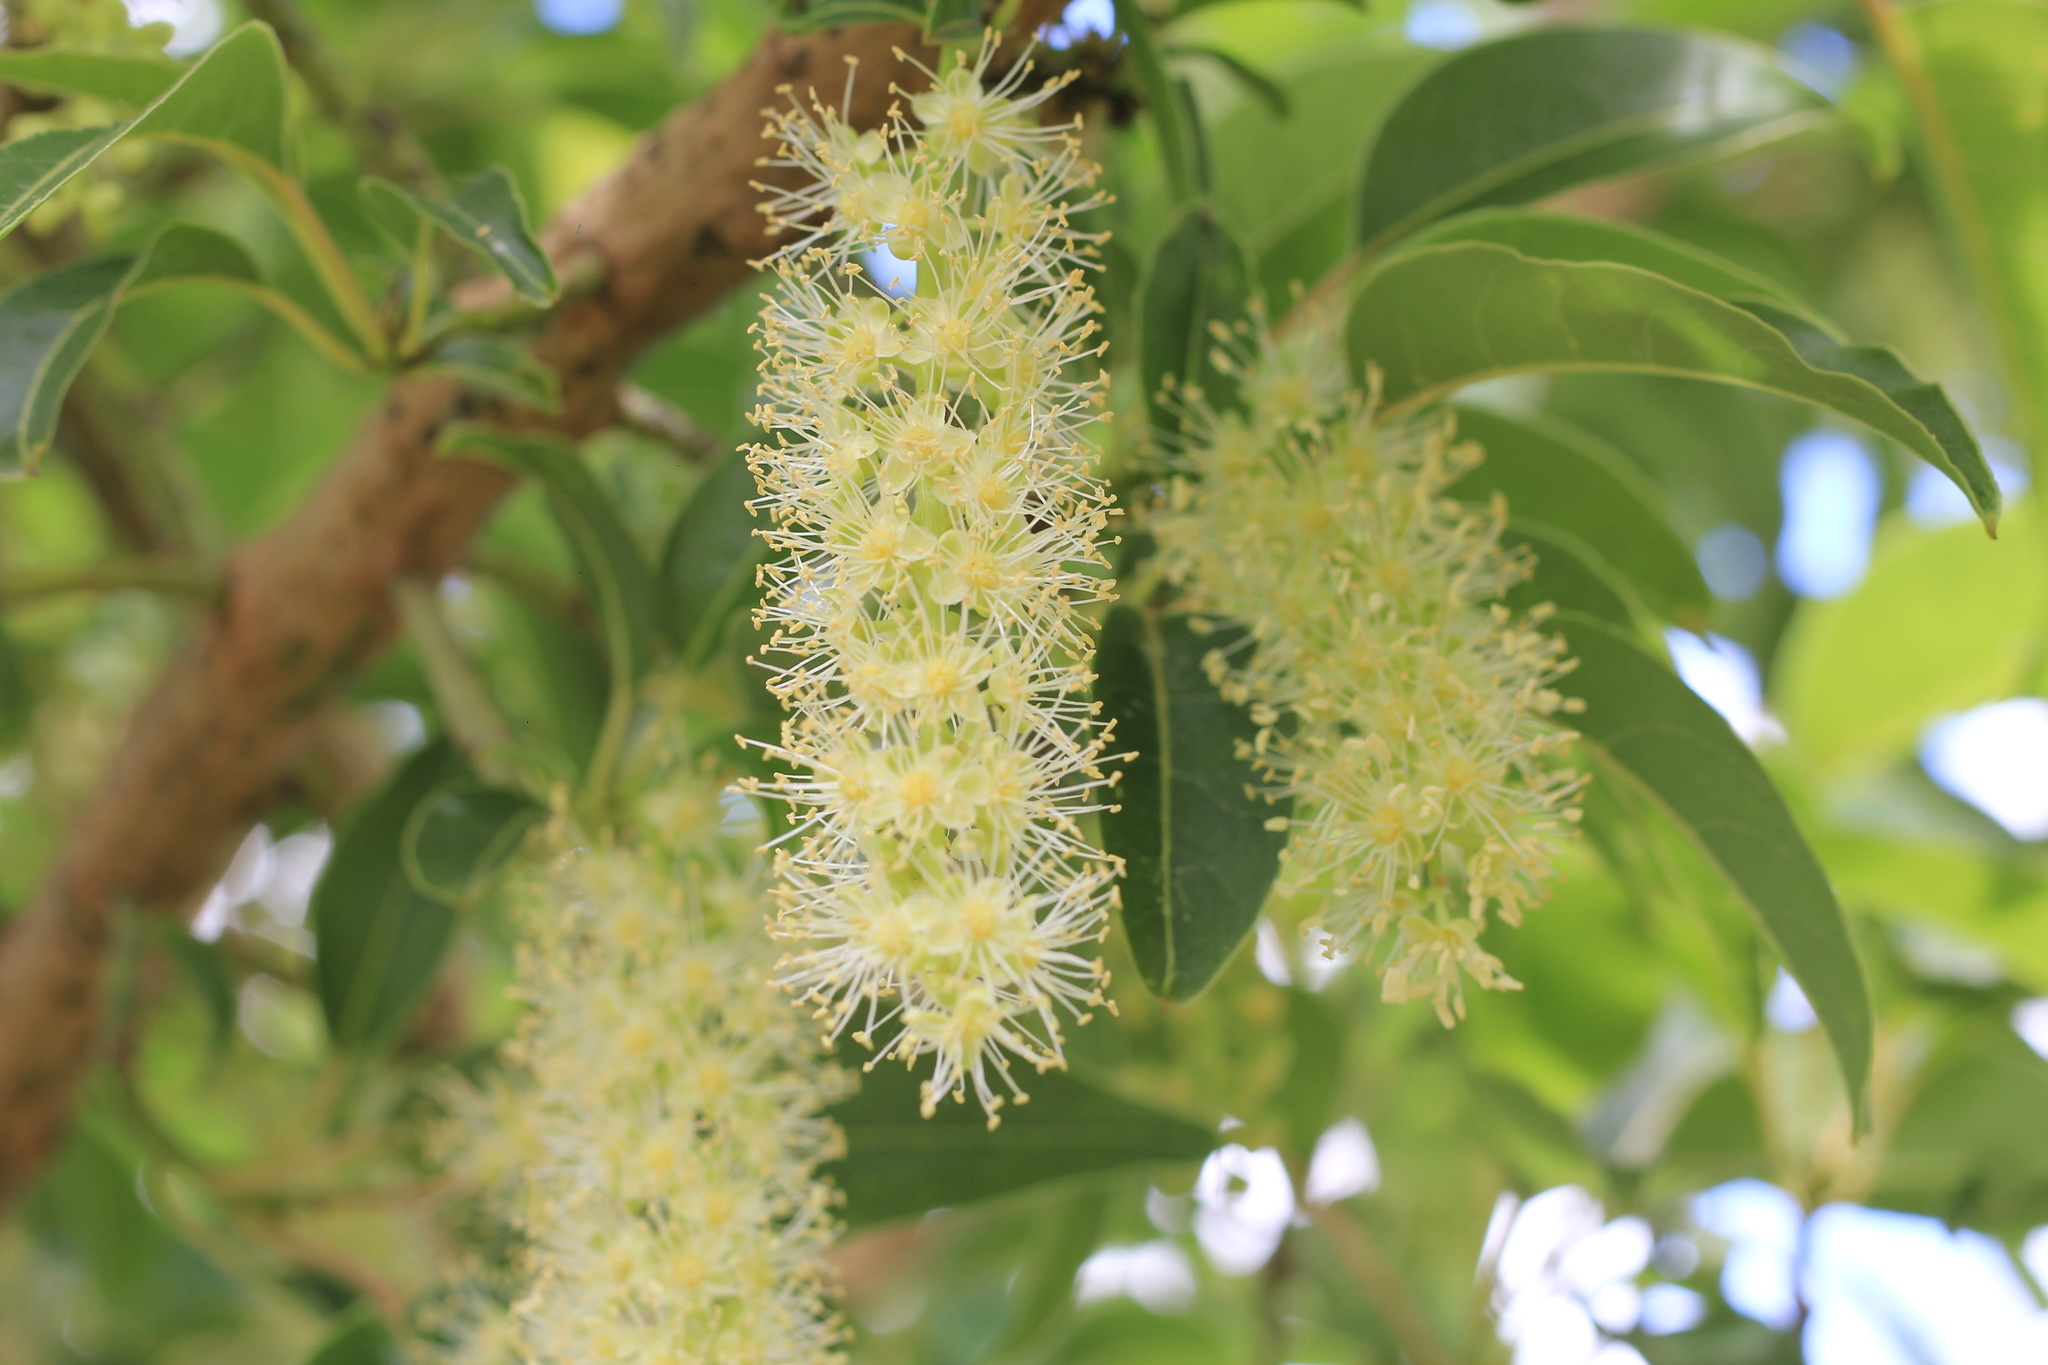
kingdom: Plantae
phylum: Tracheophyta
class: Magnoliopsida
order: Caryophyllales
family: Phytolaccaceae
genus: Phytolacca
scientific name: Phytolacca dioica
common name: Pokeweed
